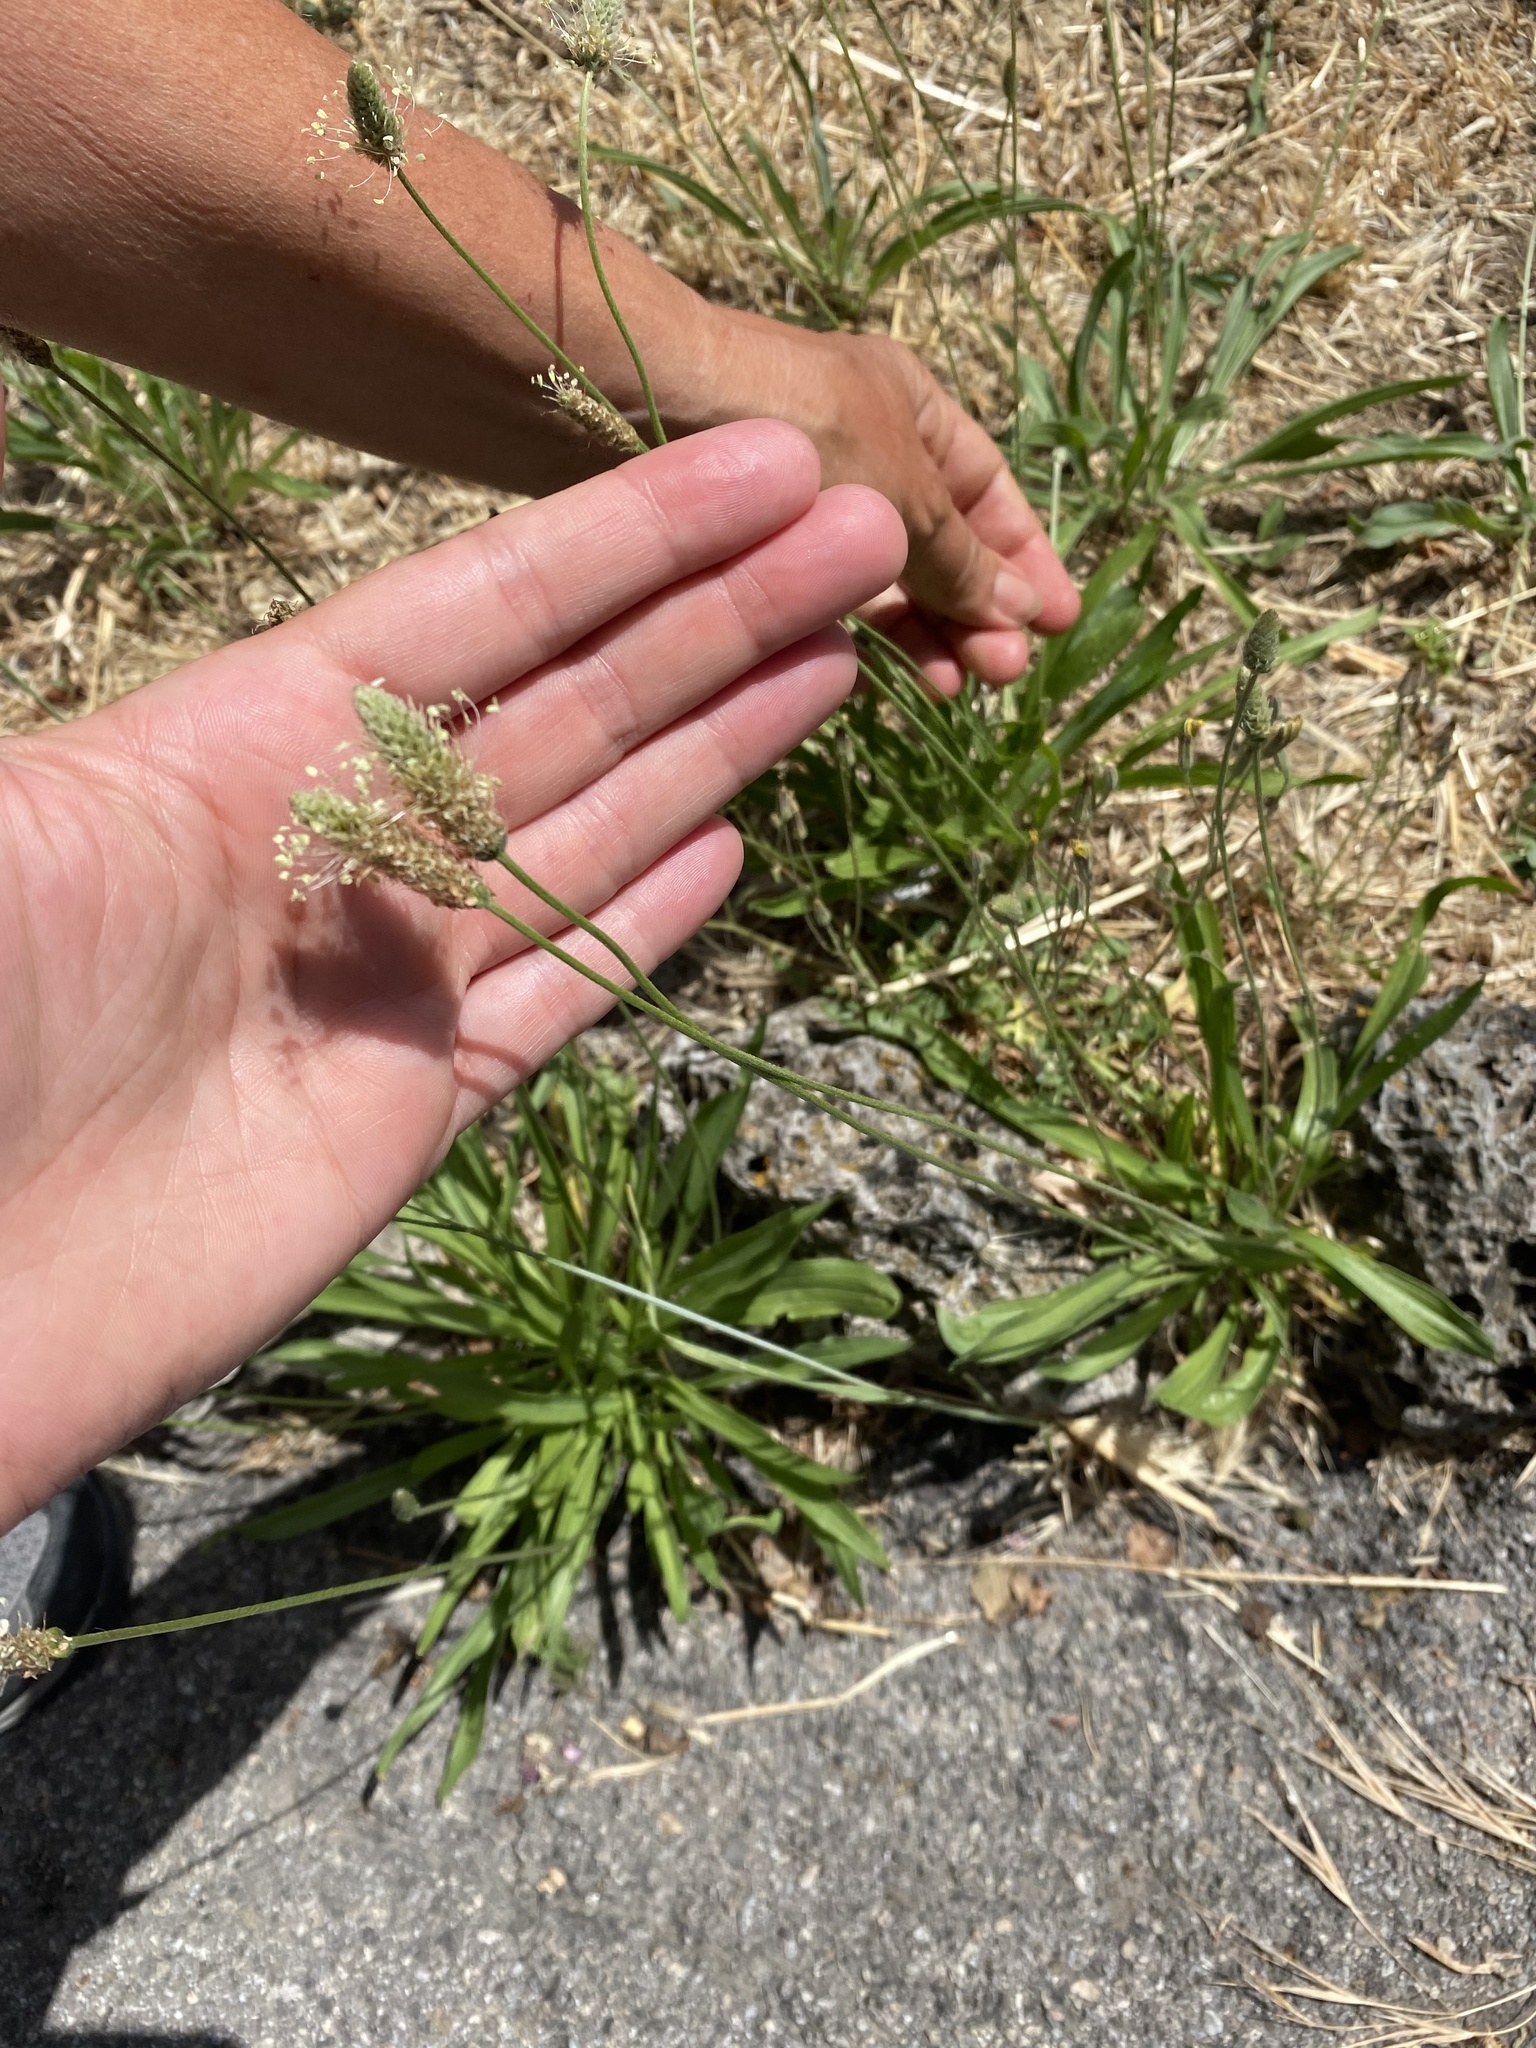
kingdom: Plantae
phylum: Tracheophyta
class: Magnoliopsida
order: Lamiales
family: Plantaginaceae
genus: Plantago
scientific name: Plantago lanceolata
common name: Ribwort plantain
